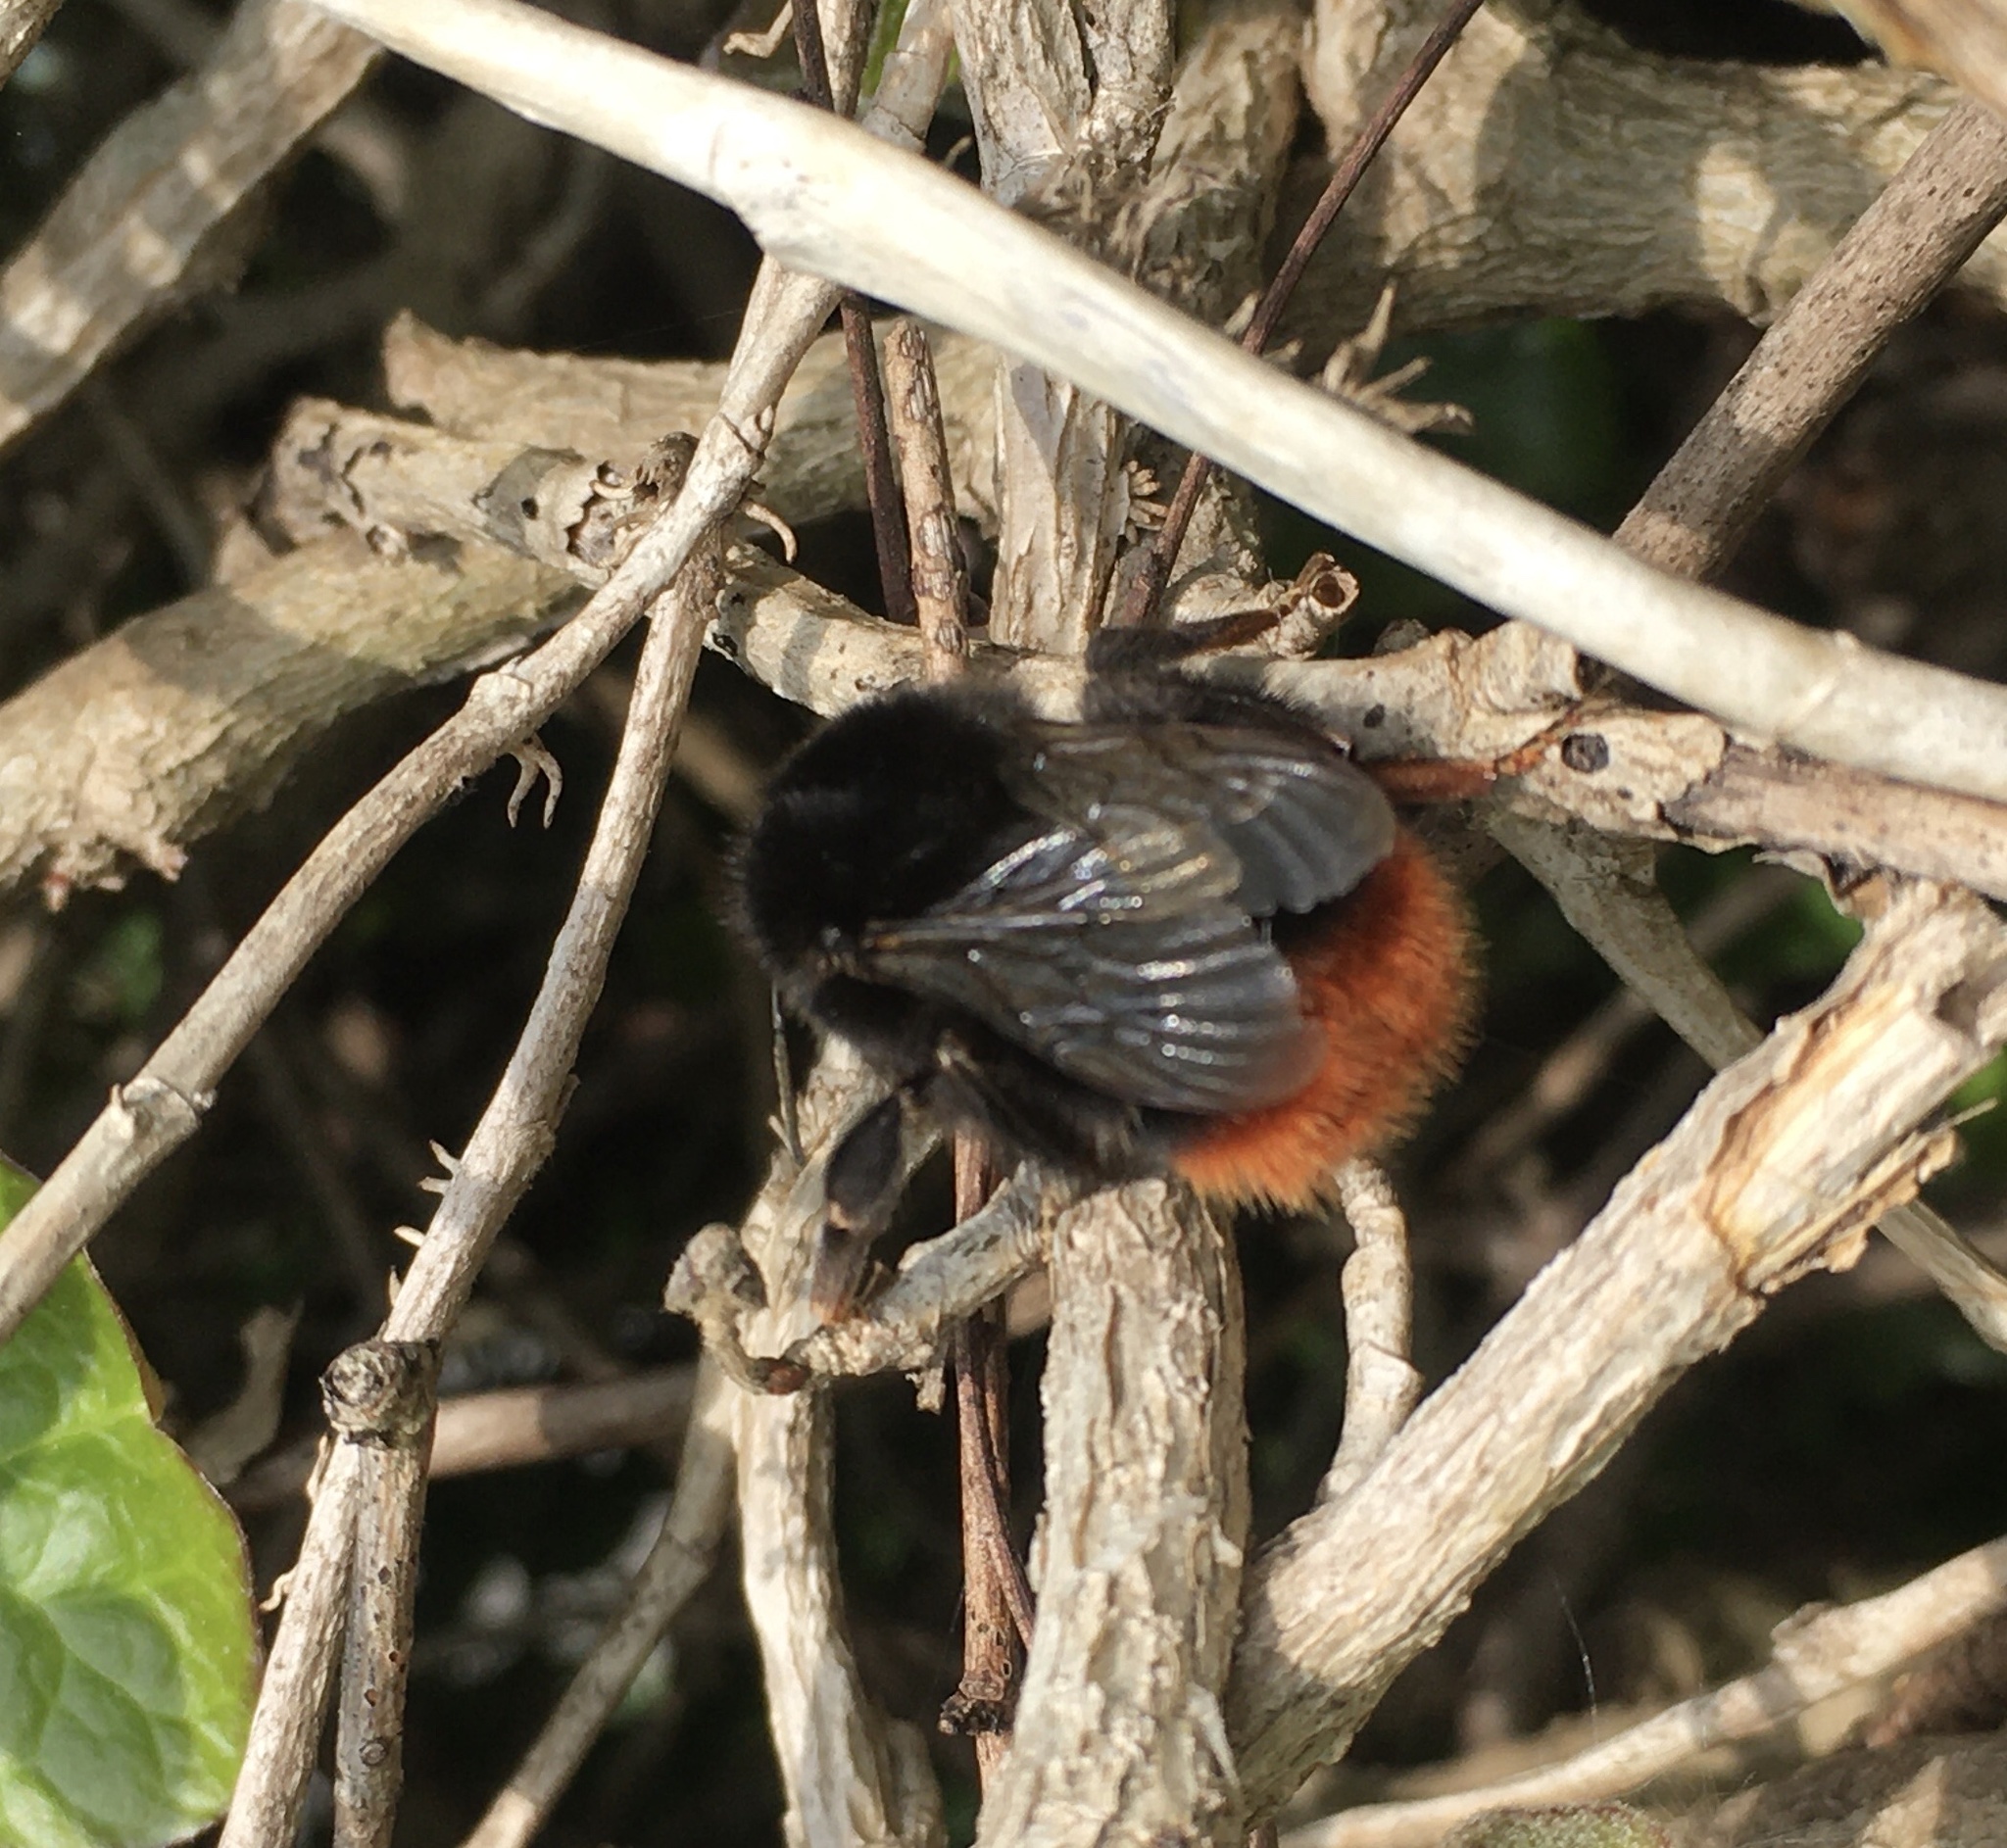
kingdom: Animalia
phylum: Arthropoda
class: Insecta
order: Hymenoptera
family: Apidae
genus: Bombus
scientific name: Bombus lapidarius
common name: Large red-tailed humble-bee
